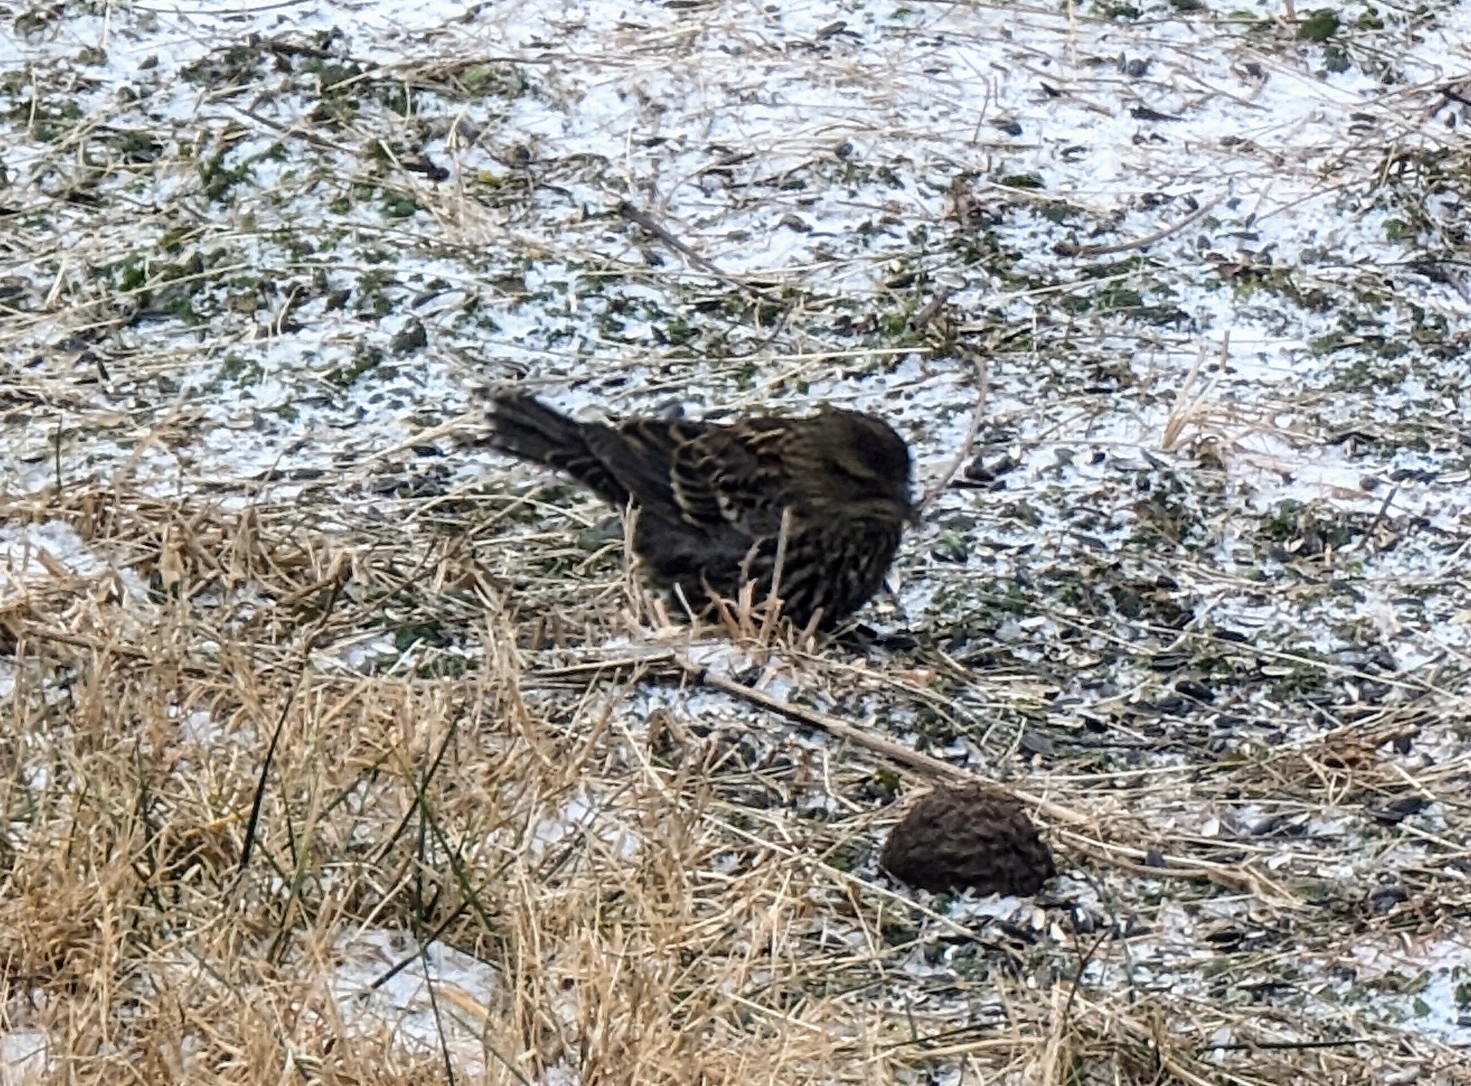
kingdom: Animalia
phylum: Chordata
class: Aves
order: Passeriformes
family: Icteridae
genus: Agelaius
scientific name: Agelaius phoeniceus
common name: Red-winged blackbird
